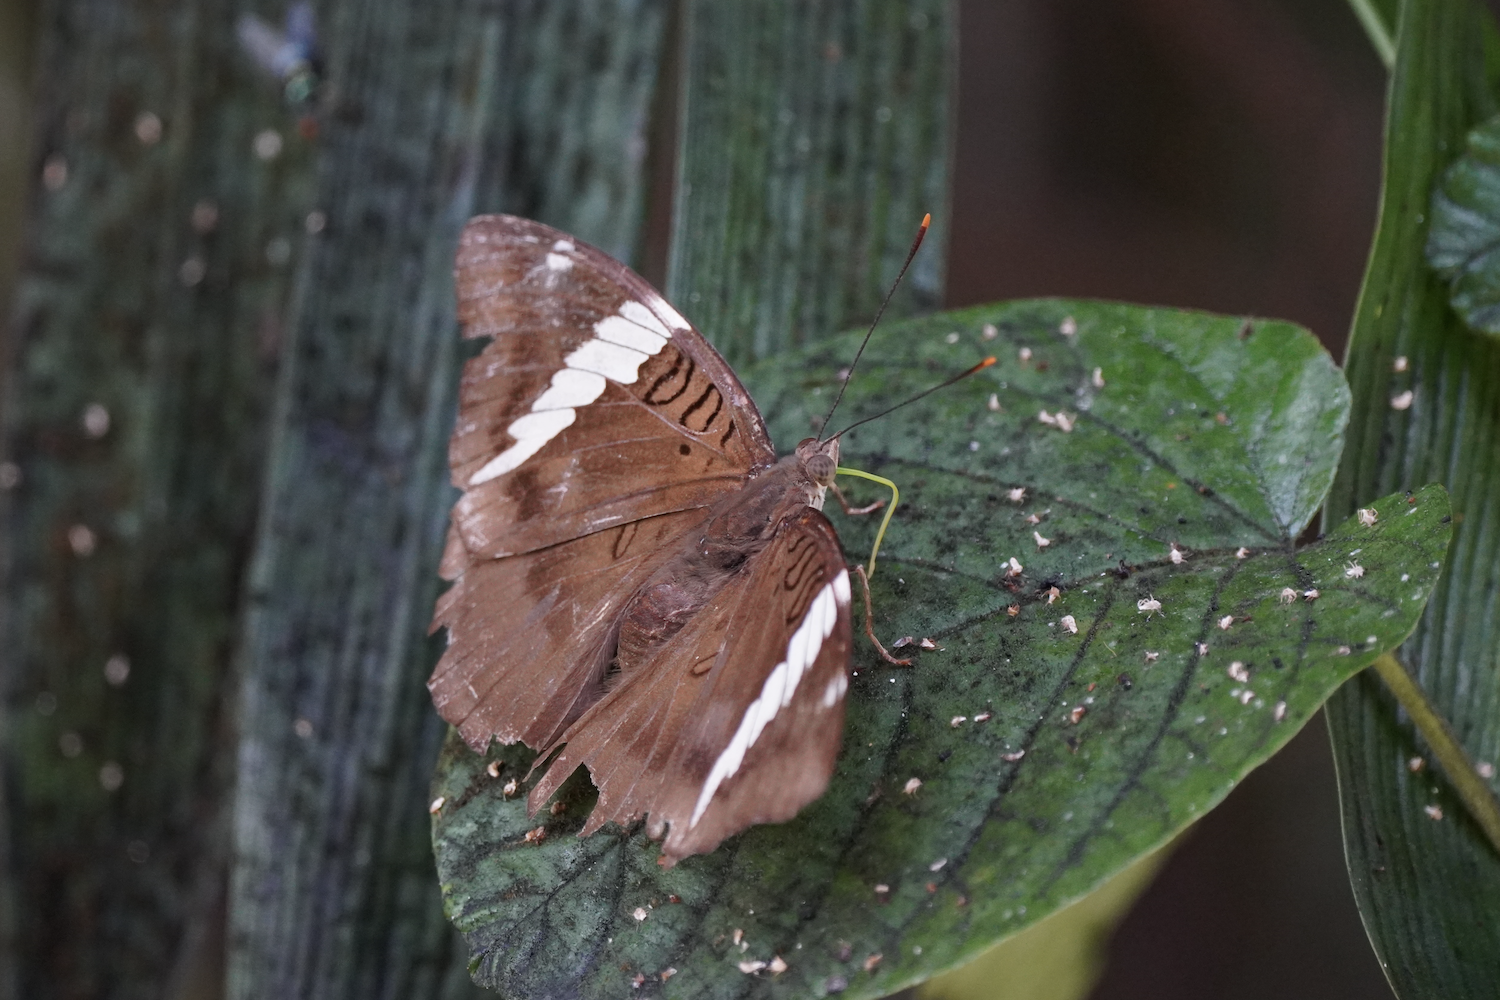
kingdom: Animalia
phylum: Arthropoda
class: Insecta
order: Lepidoptera
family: Nymphalidae
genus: Euthalia
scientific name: Euthalia phemius
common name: White-edged blue baron
